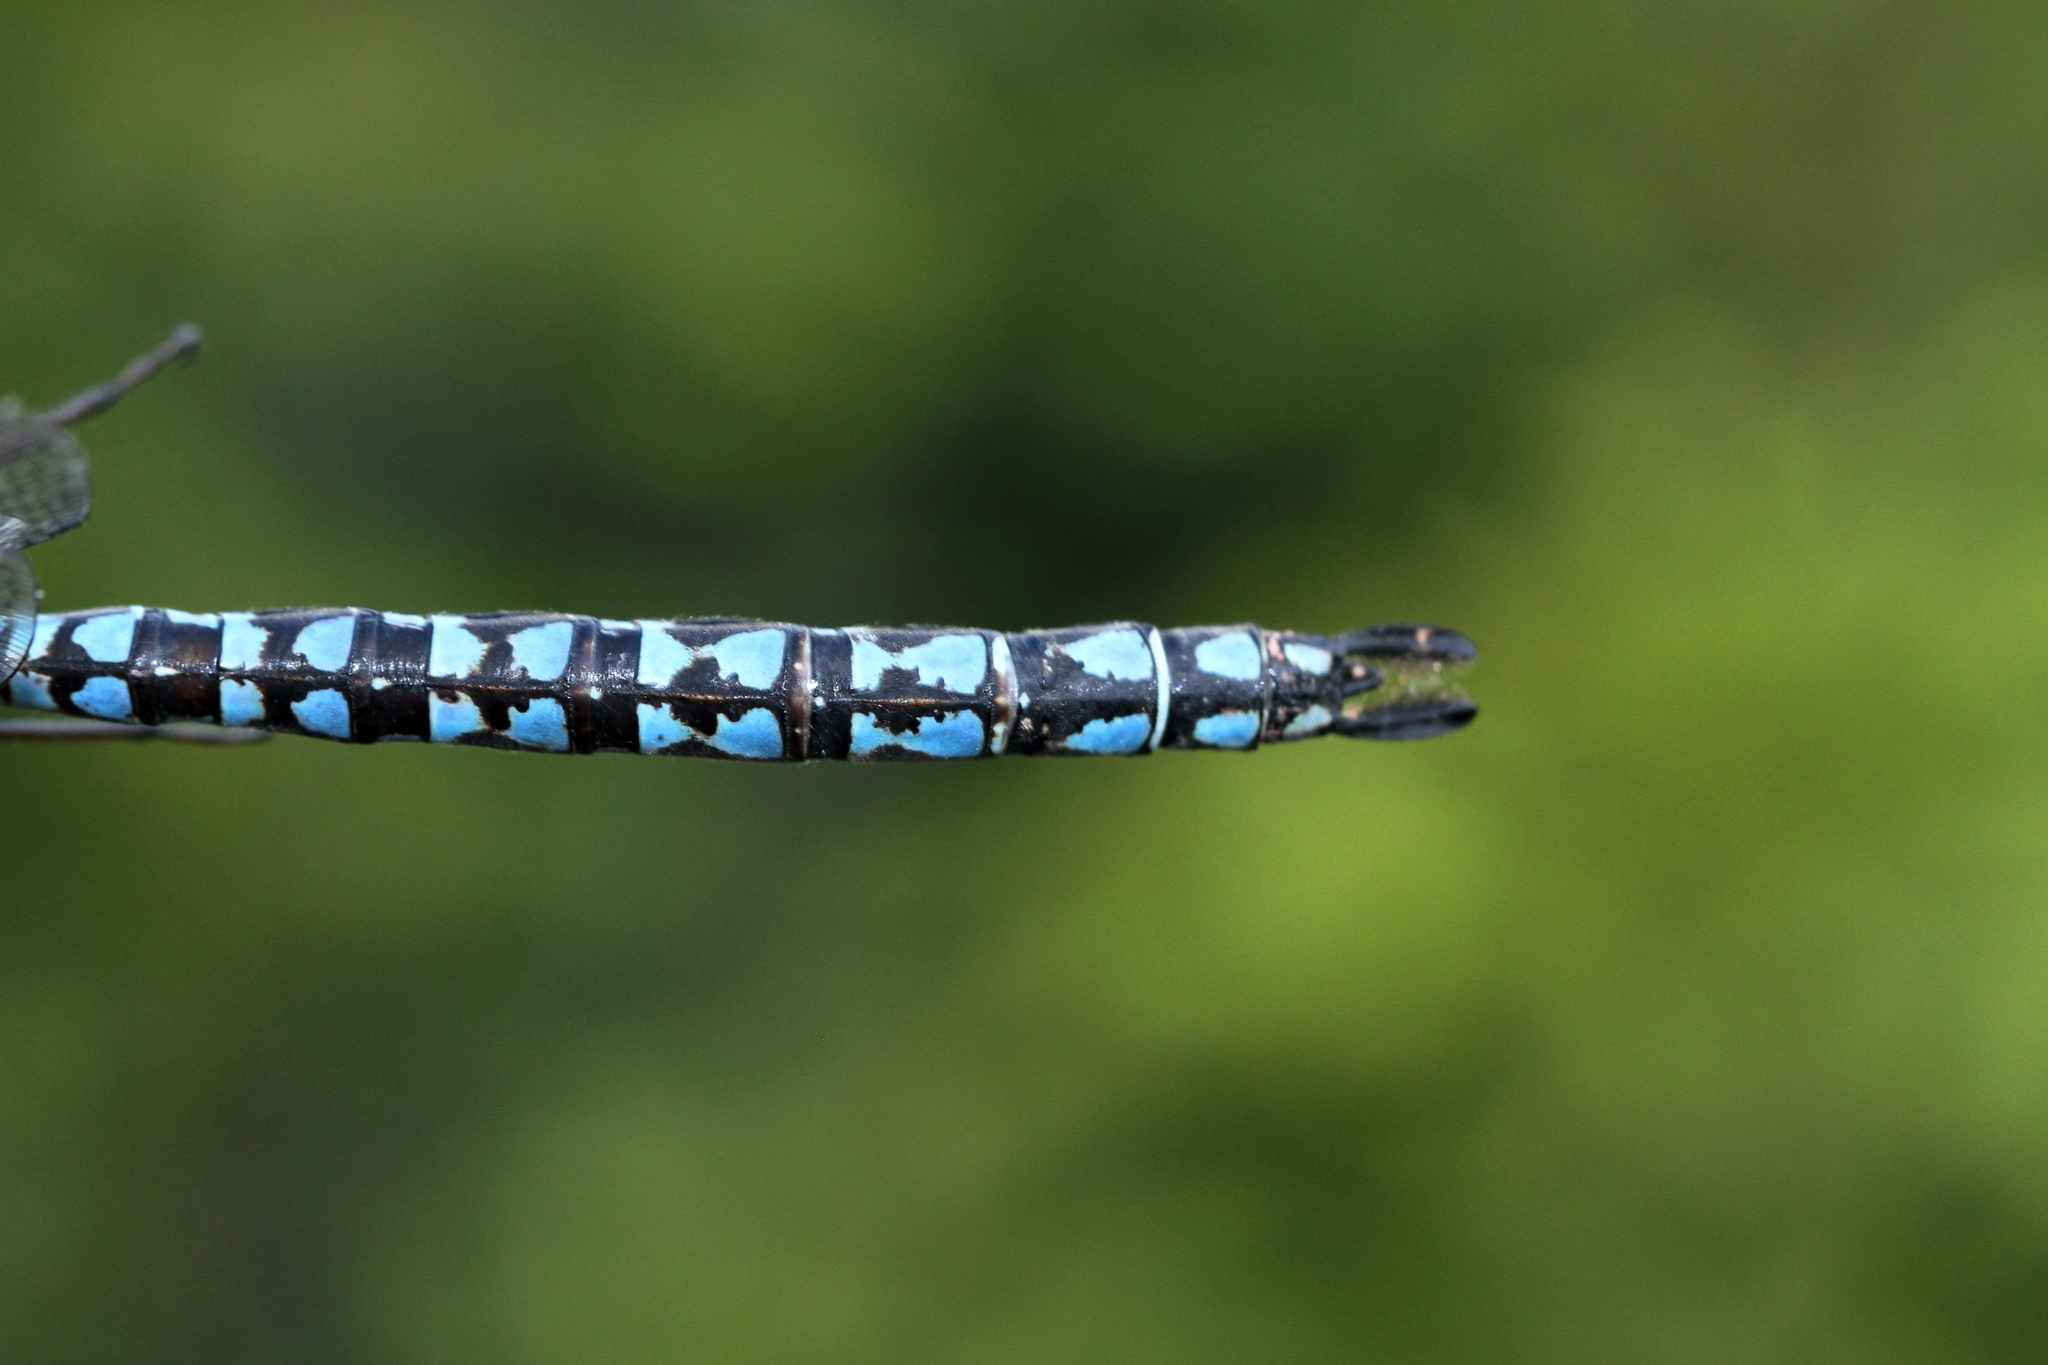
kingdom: Animalia
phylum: Arthropoda
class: Insecta
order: Odonata
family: Aeshnidae
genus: Aeshna
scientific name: Aeshna septentrionalis
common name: Azure darner
